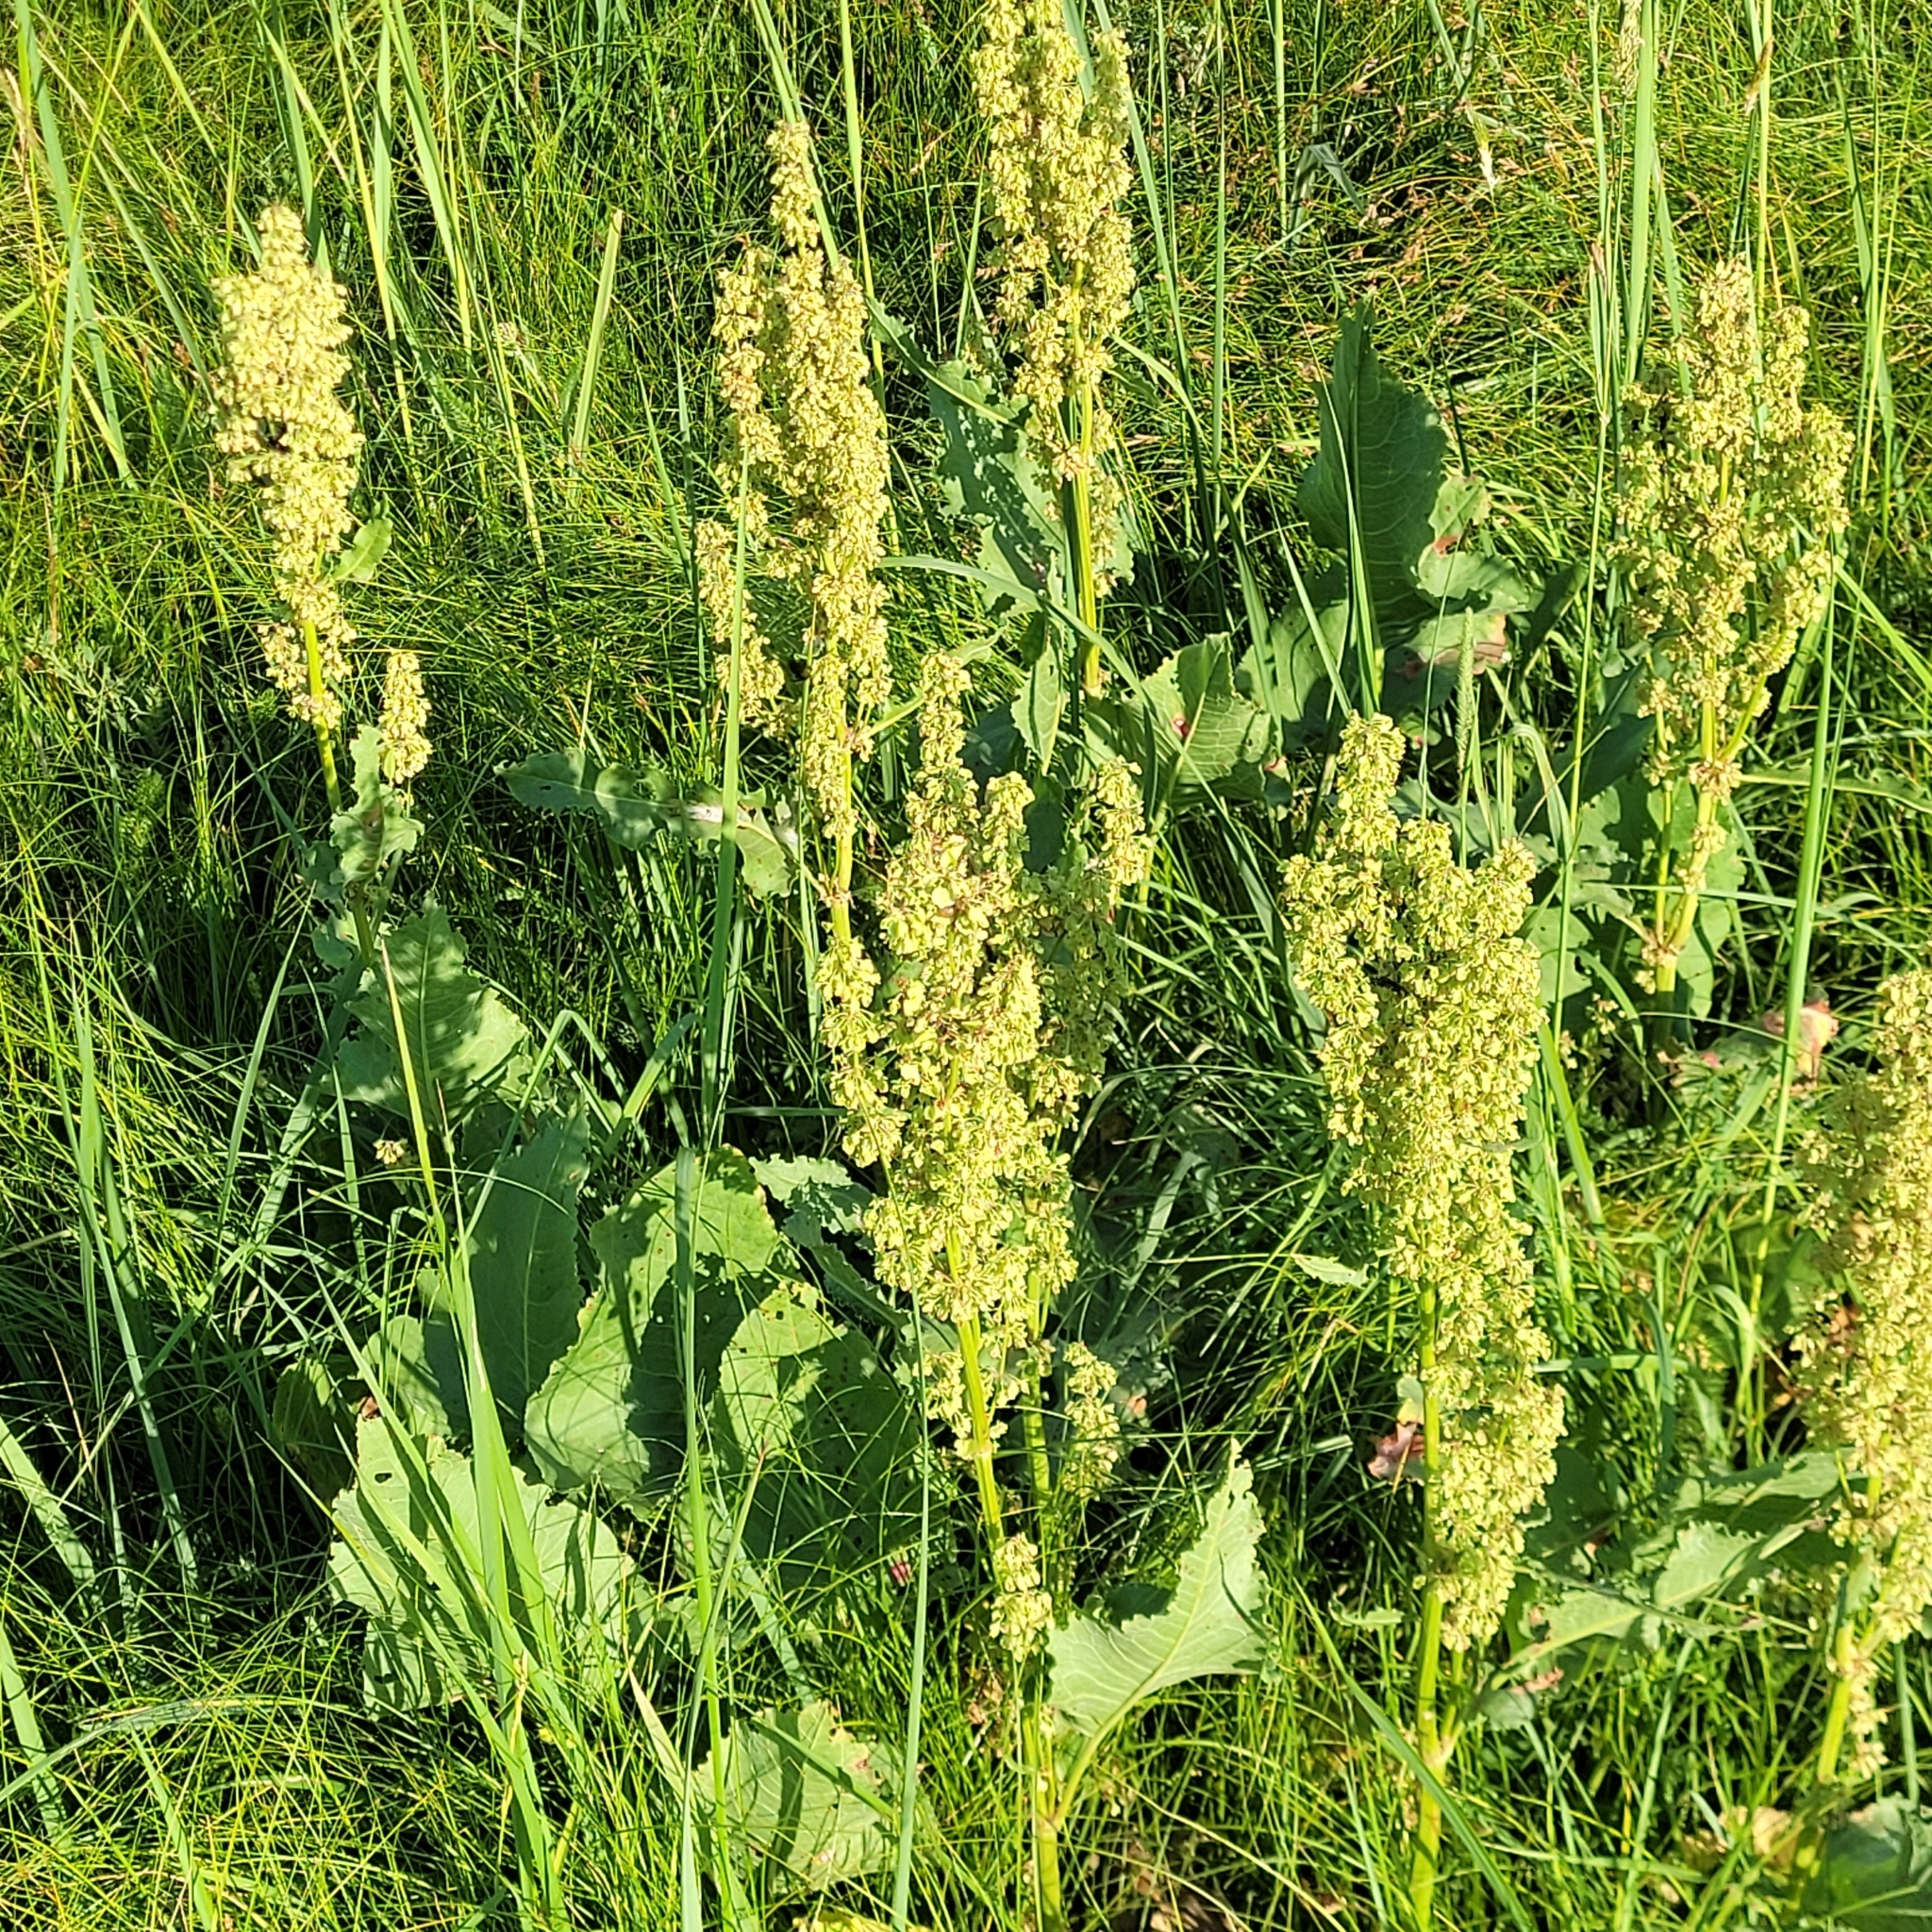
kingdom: Plantae
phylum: Tracheophyta
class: Magnoliopsida
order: Caryophyllales
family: Polygonaceae
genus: Rumex
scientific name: Rumex confertus
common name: Russian dock
